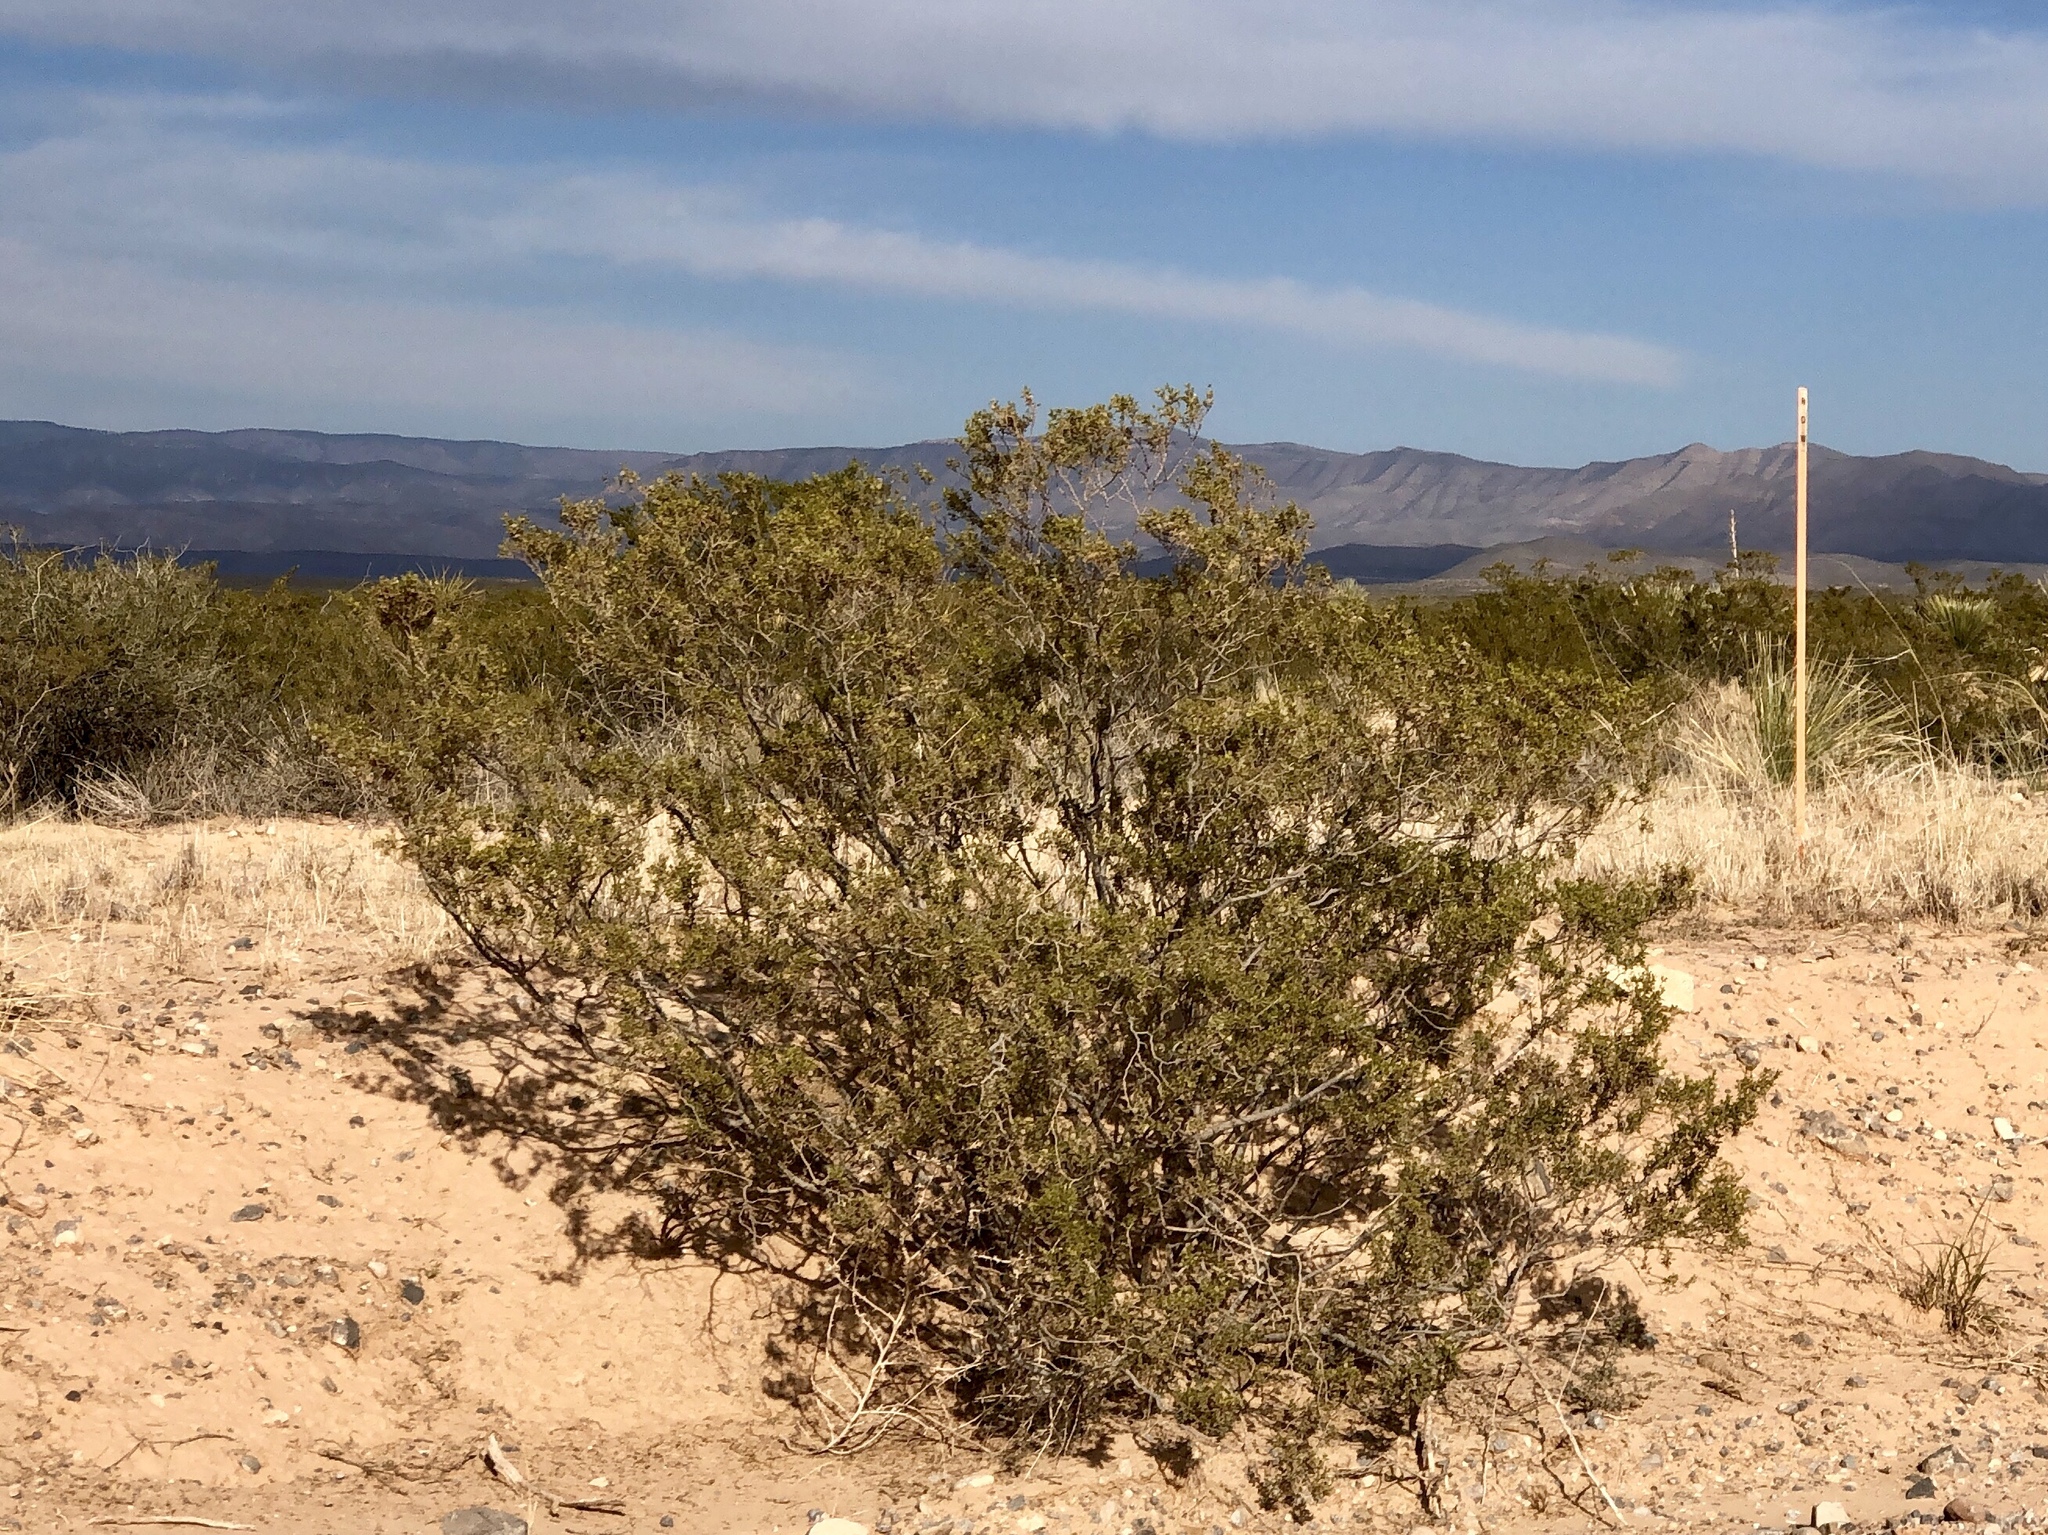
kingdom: Plantae
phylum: Tracheophyta
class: Magnoliopsida
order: Zygophyllales
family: Zygophyllaceae
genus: Larrea
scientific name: Larrea tridentata
